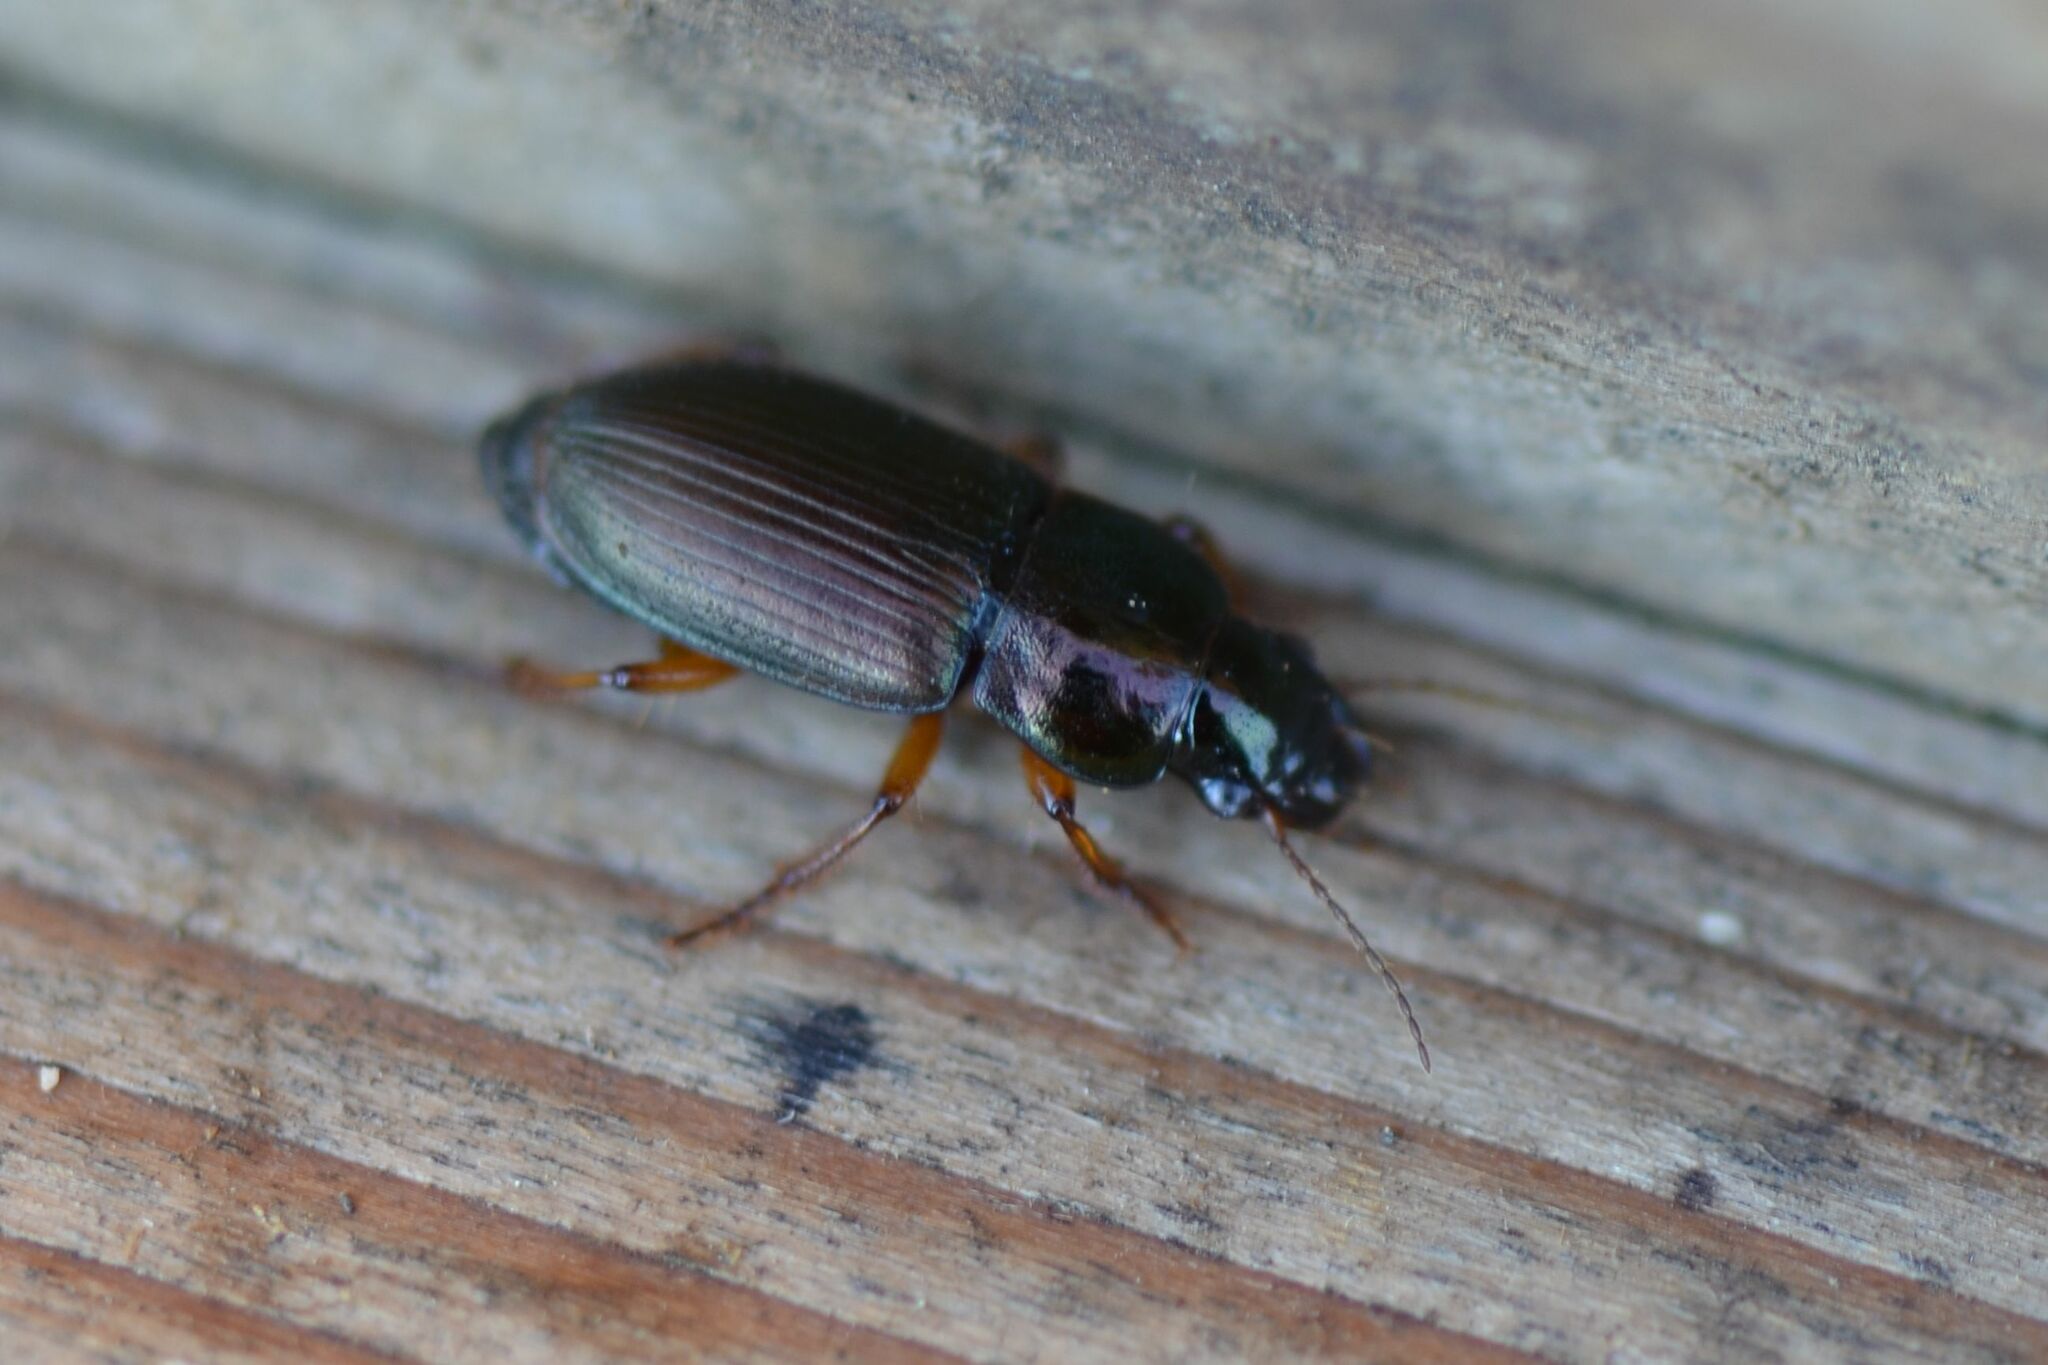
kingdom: Animalia
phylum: Arthropoda
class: Insecta
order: Coleoptera
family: Carabidae
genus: Harpalus
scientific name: Harpalus affinis
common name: Polychrome harp ground beetle
